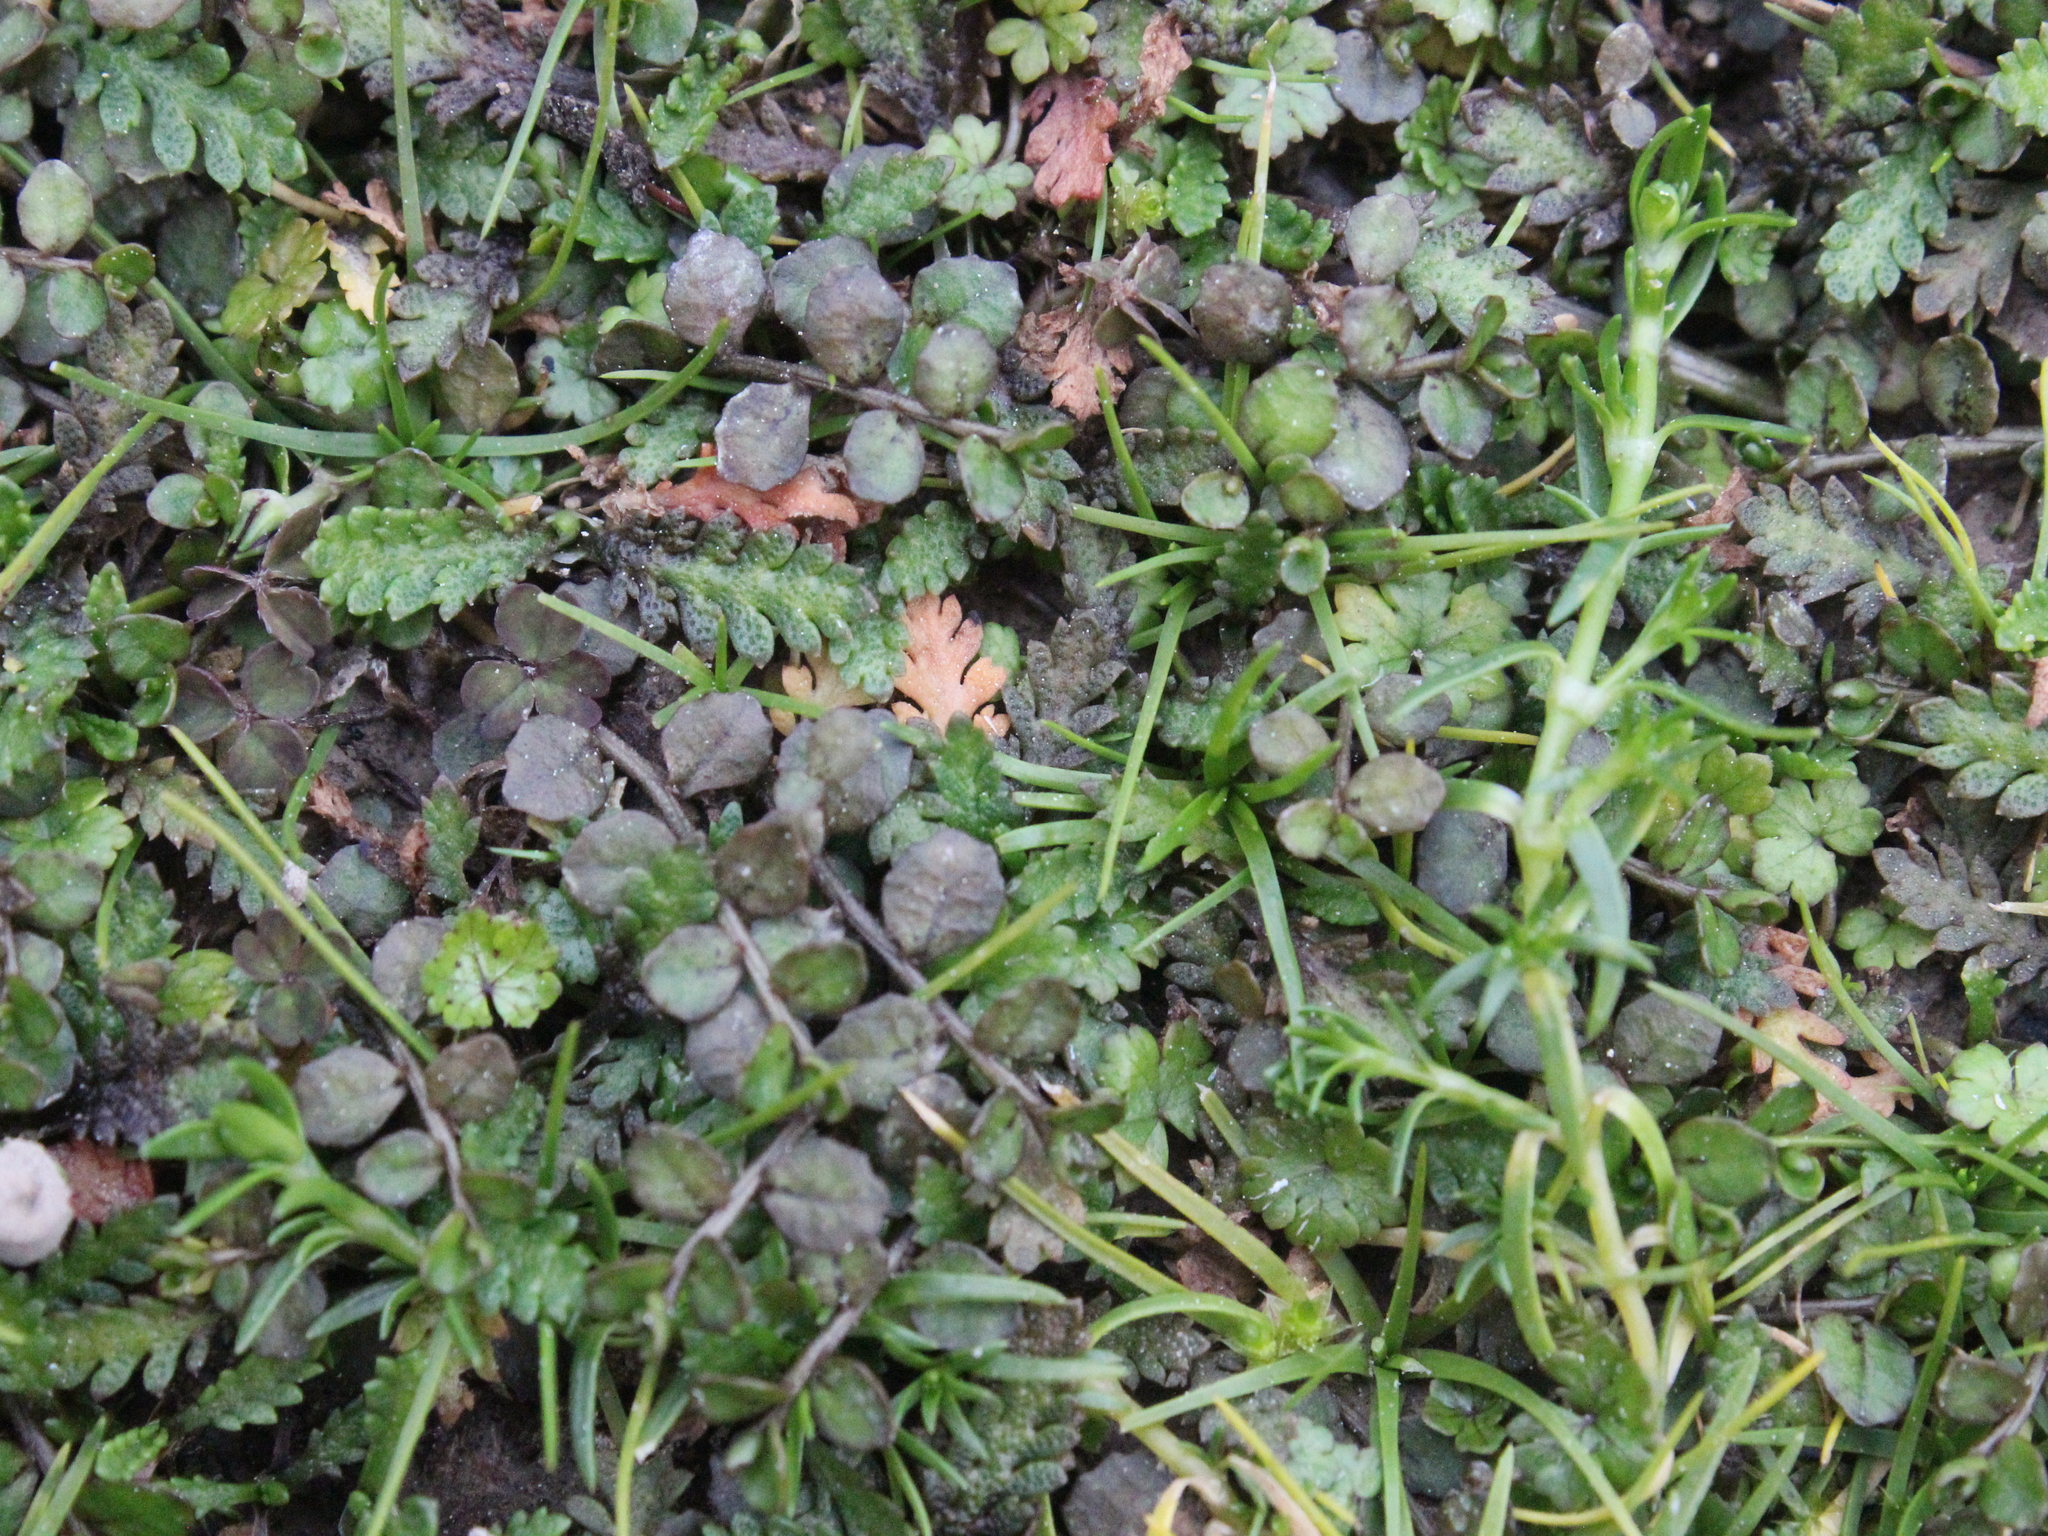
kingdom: Plantae
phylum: Tracheophyta
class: Magnoliopsida
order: Asterales
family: Campanulaceae
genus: Lobelia
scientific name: Lobelia perpusilla
